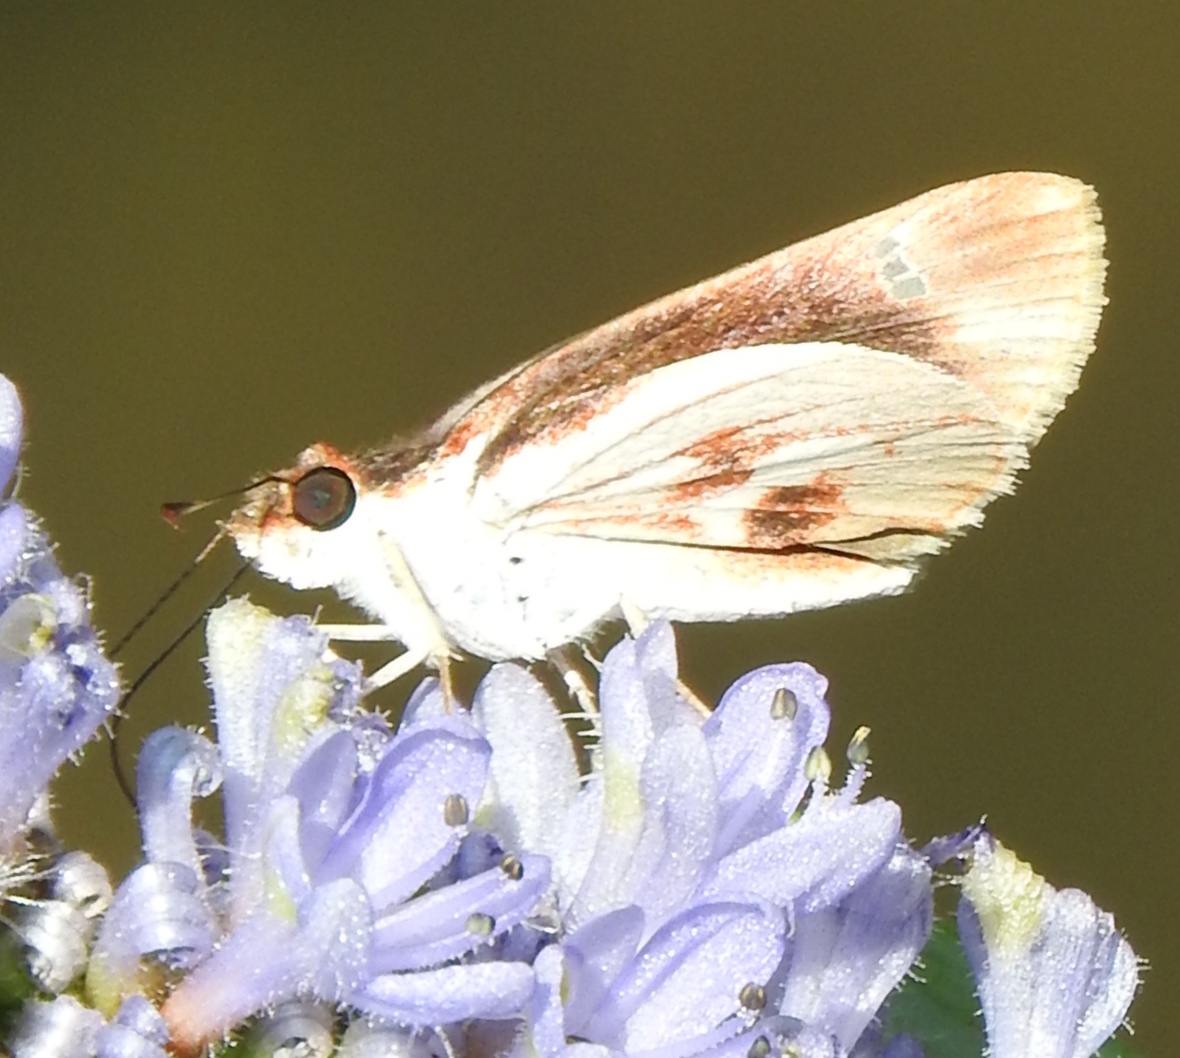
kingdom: Animalia
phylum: Arthropoda
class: Insecta
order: Lepidoptera
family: Hesperiidae
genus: Troyus
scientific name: Troyus fantasos
